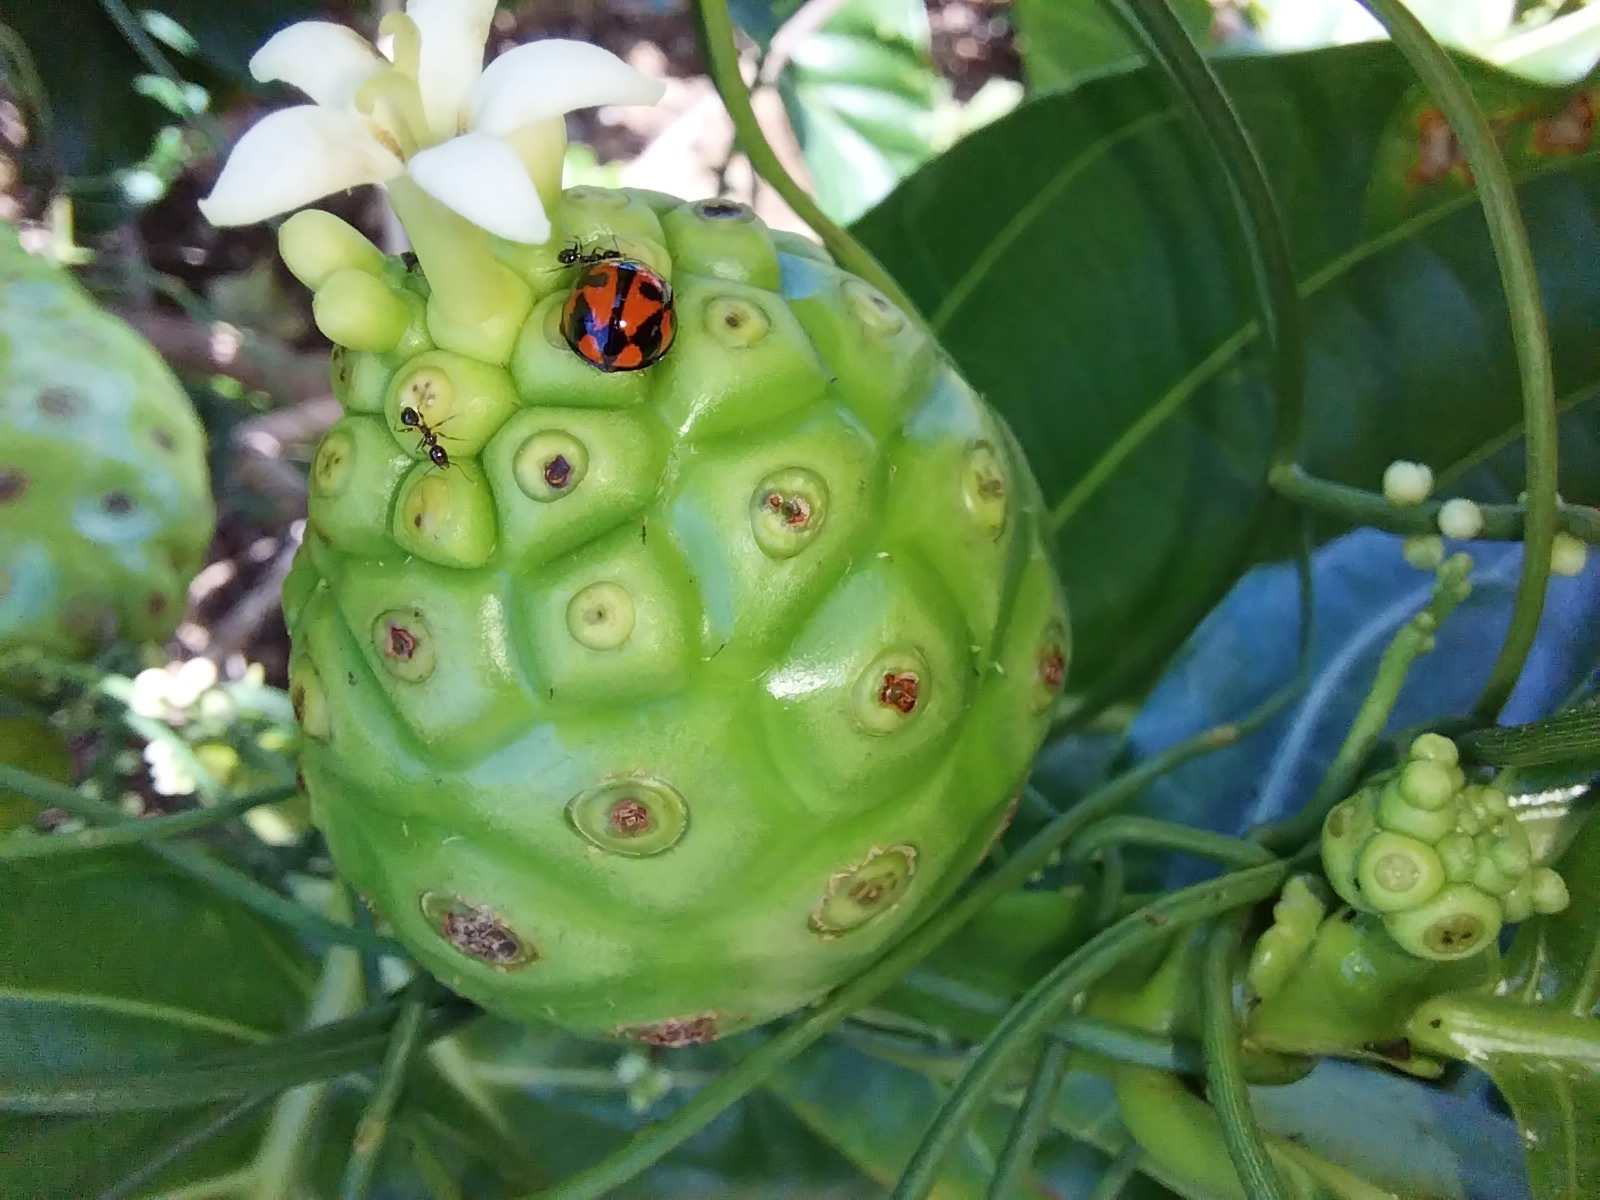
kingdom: Animalia
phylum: Arthropoda
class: Insecta
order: Coleoptera
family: Coccinellidae
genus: Coelophora
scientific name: Coelophora inaequalis
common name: Common australian lady beetle
